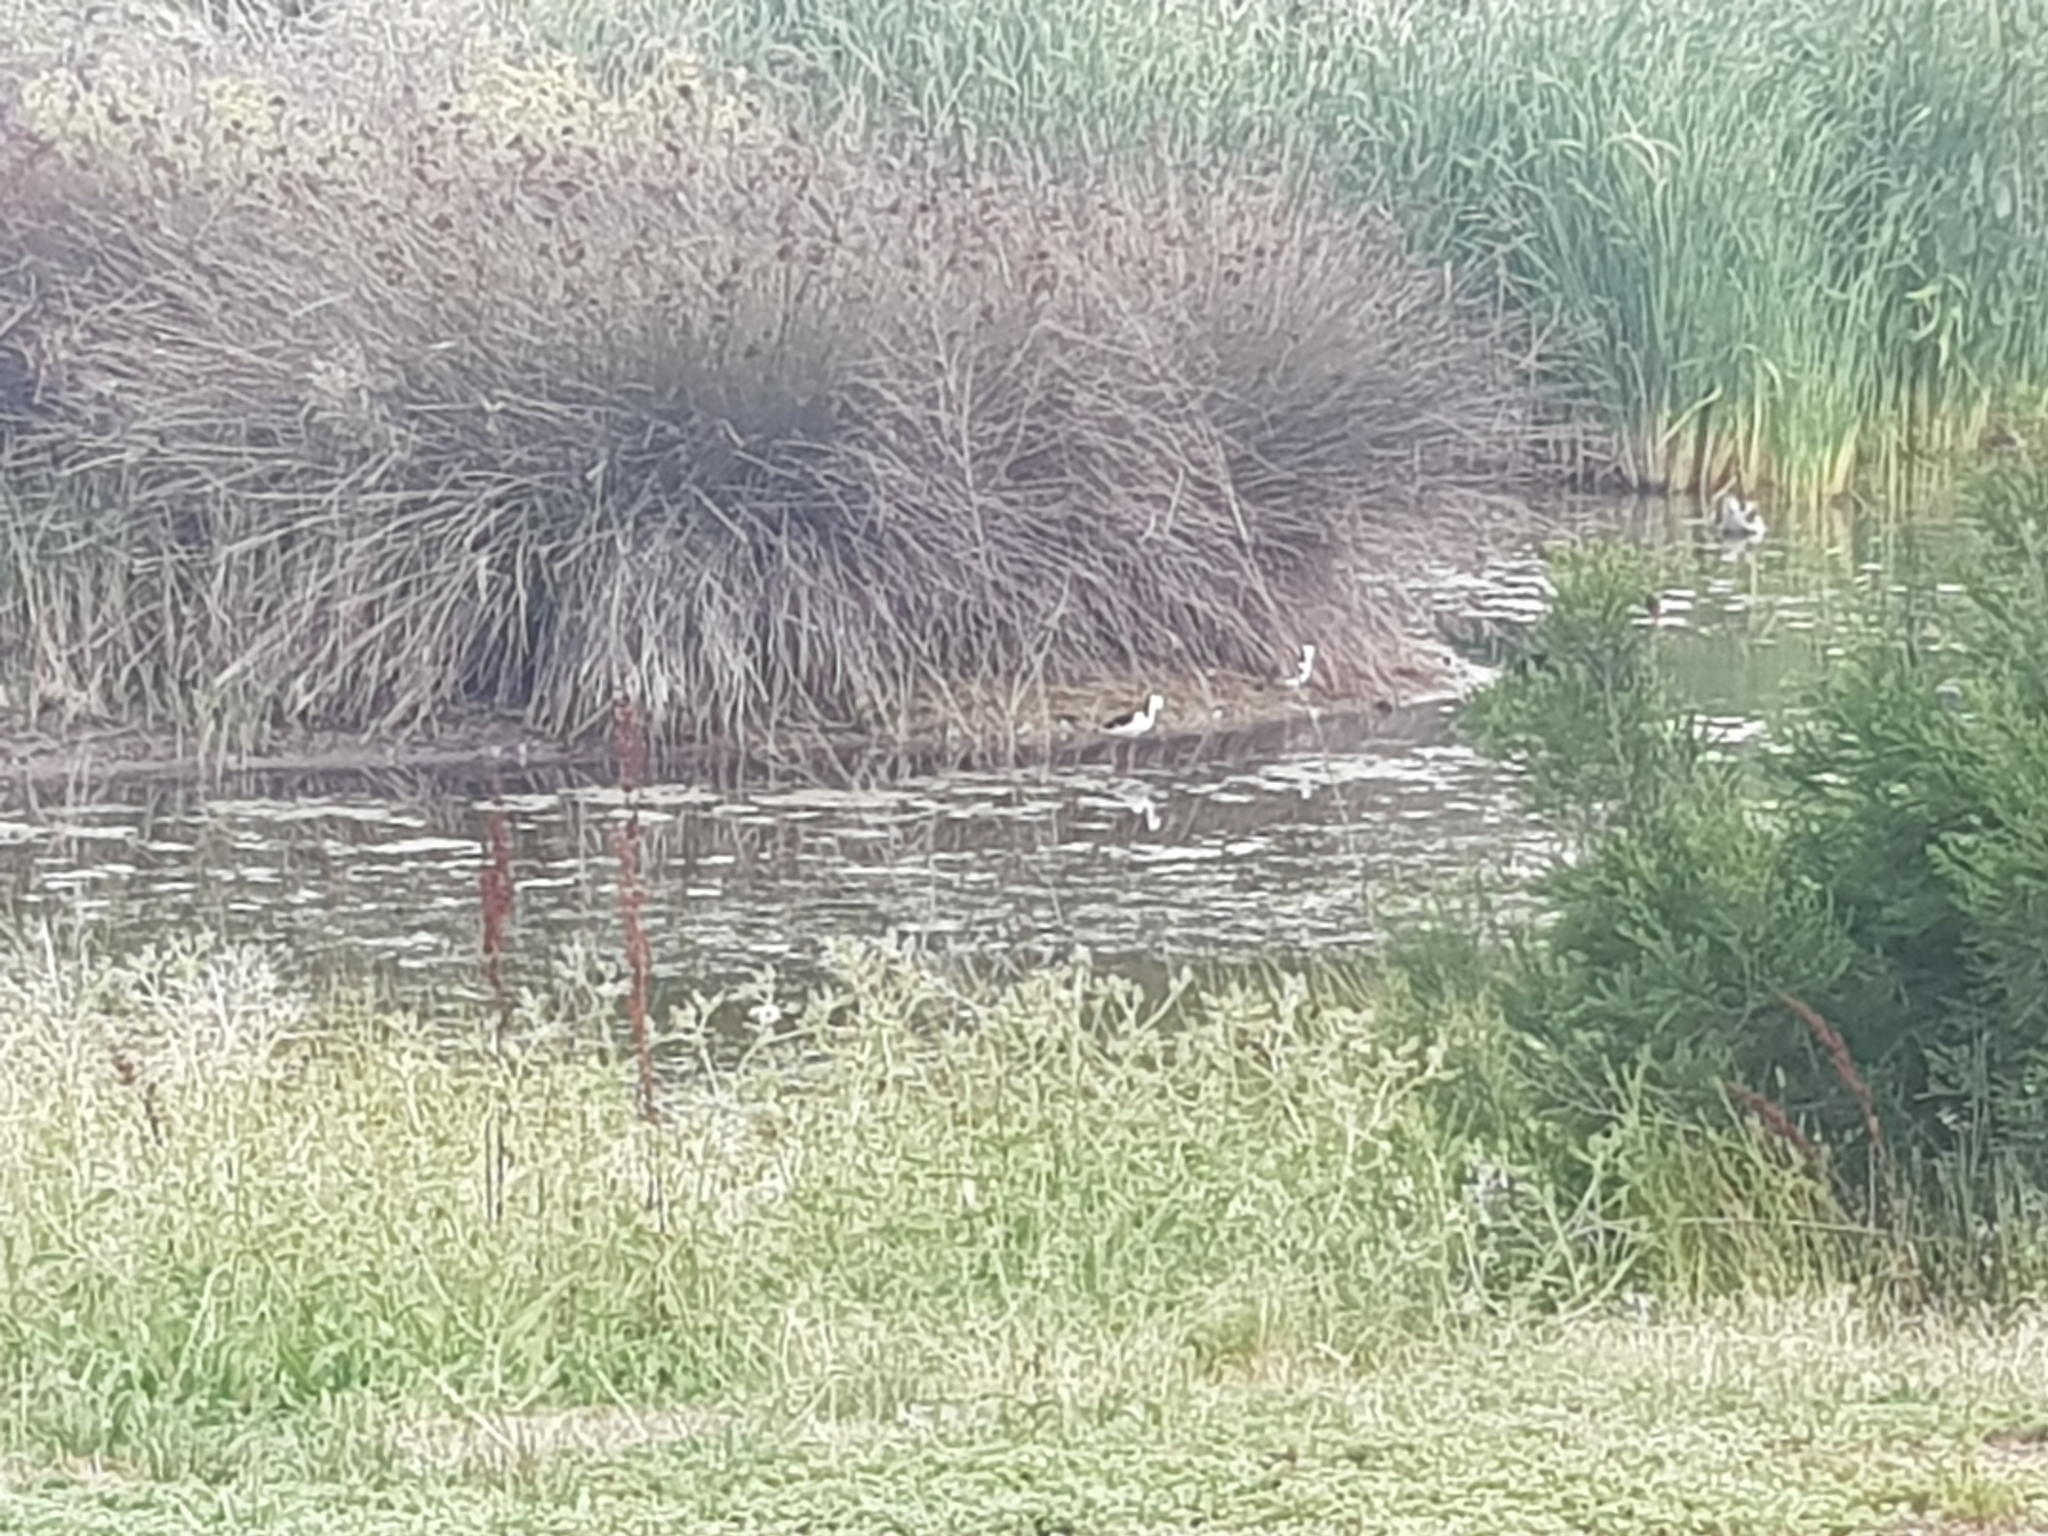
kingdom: Animalia
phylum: Chordata
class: Aves
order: Charadriiformes
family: Recurvirostridae
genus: Himantopus
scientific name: Himantopus leucocephalus
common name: White-headed stilt
